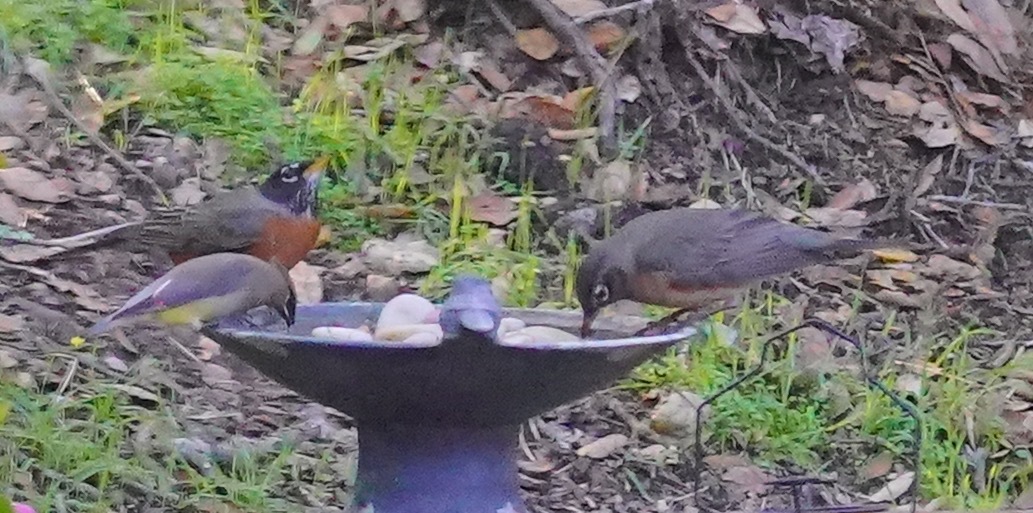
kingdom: Animalia
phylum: Chordata
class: Aves
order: Passeriformes
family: Turdidae
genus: Turdus
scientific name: Turdus migratorius
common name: American robin
